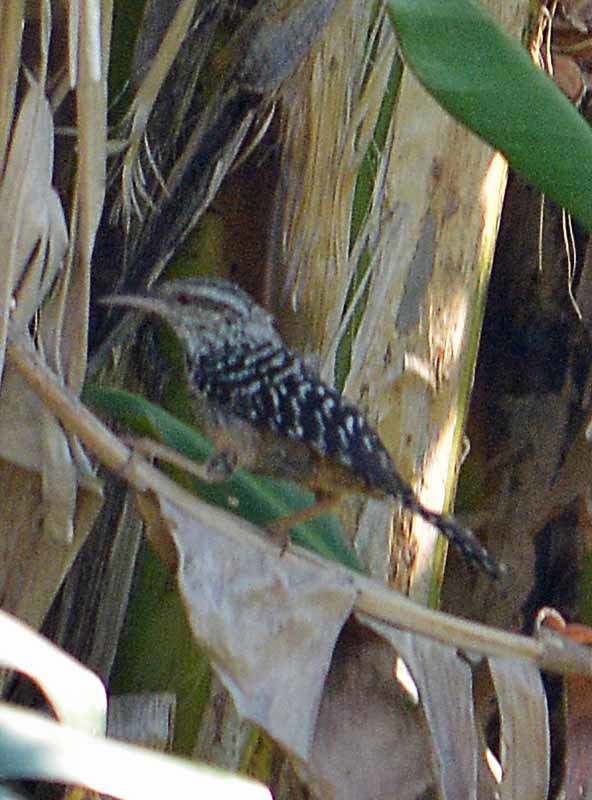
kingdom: Animalia
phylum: Chordata
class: Aves
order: Passeriformes
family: Troglodytidae
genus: Campylorhynchus
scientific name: Campylorhynchus zonatus
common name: Band-backed wren
